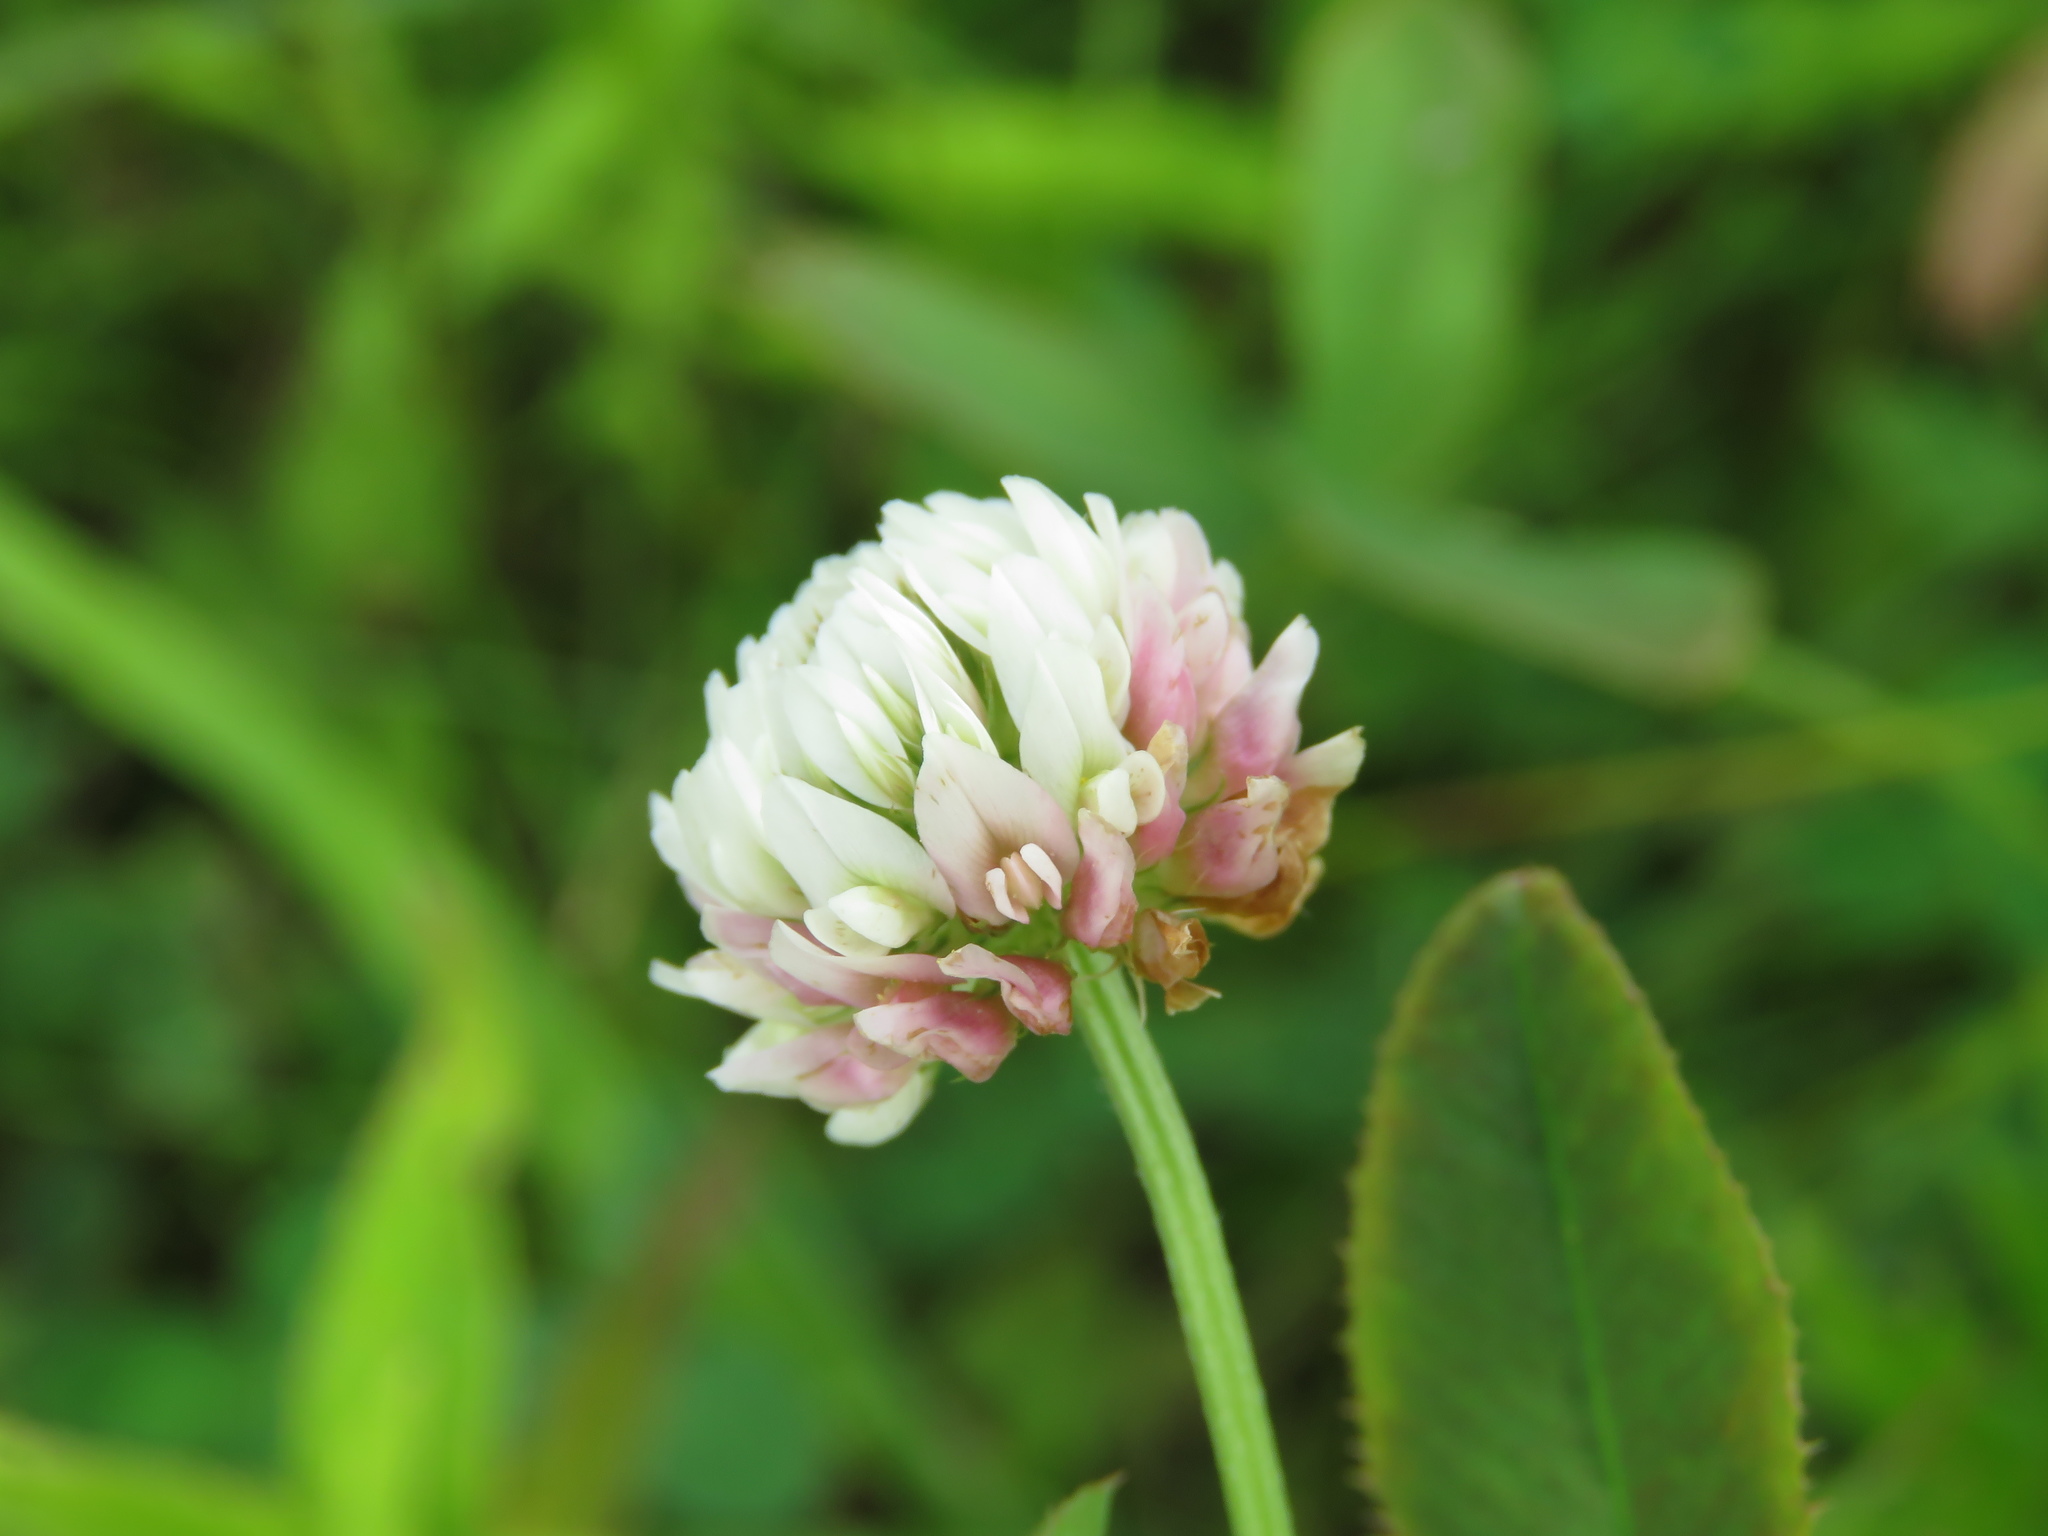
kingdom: Plantae
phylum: Tracheophyta
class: Magnoliopsida
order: Fabales
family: Fabaceae
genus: Trifolium
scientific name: Trifolium hybridum
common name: Alsike clover
